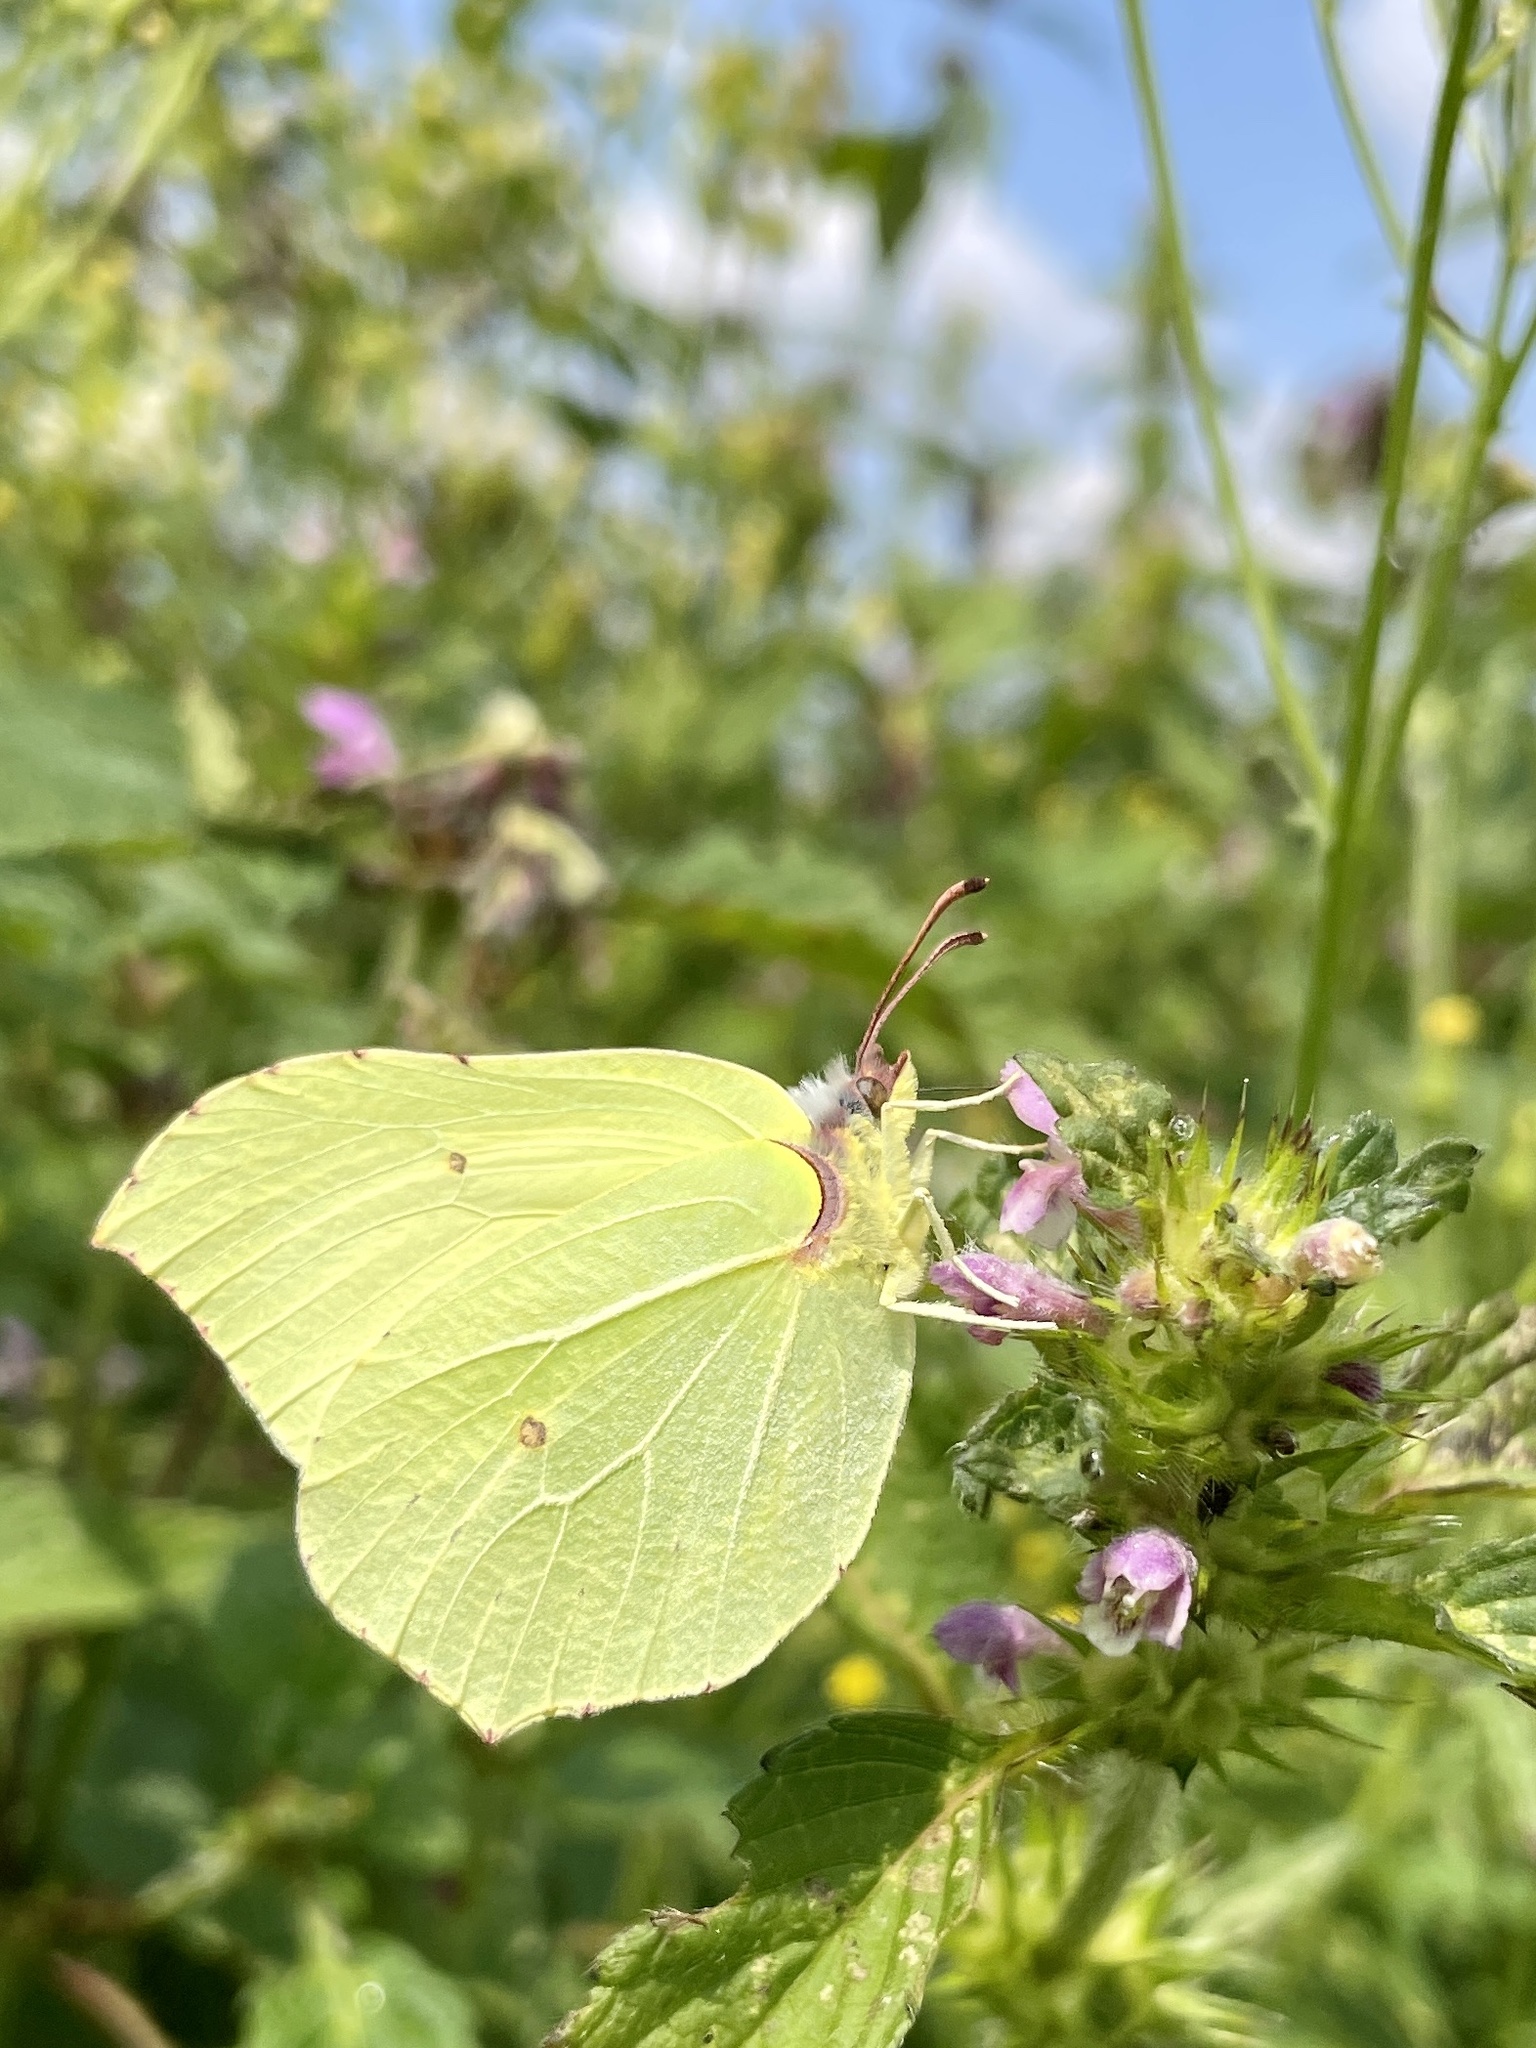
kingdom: Animalia
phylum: Arthropoda
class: Insecta
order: Lepidoptera
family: Pieridae
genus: Gonepteryx
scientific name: Gonepteryx rhamni
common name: Brimstone
